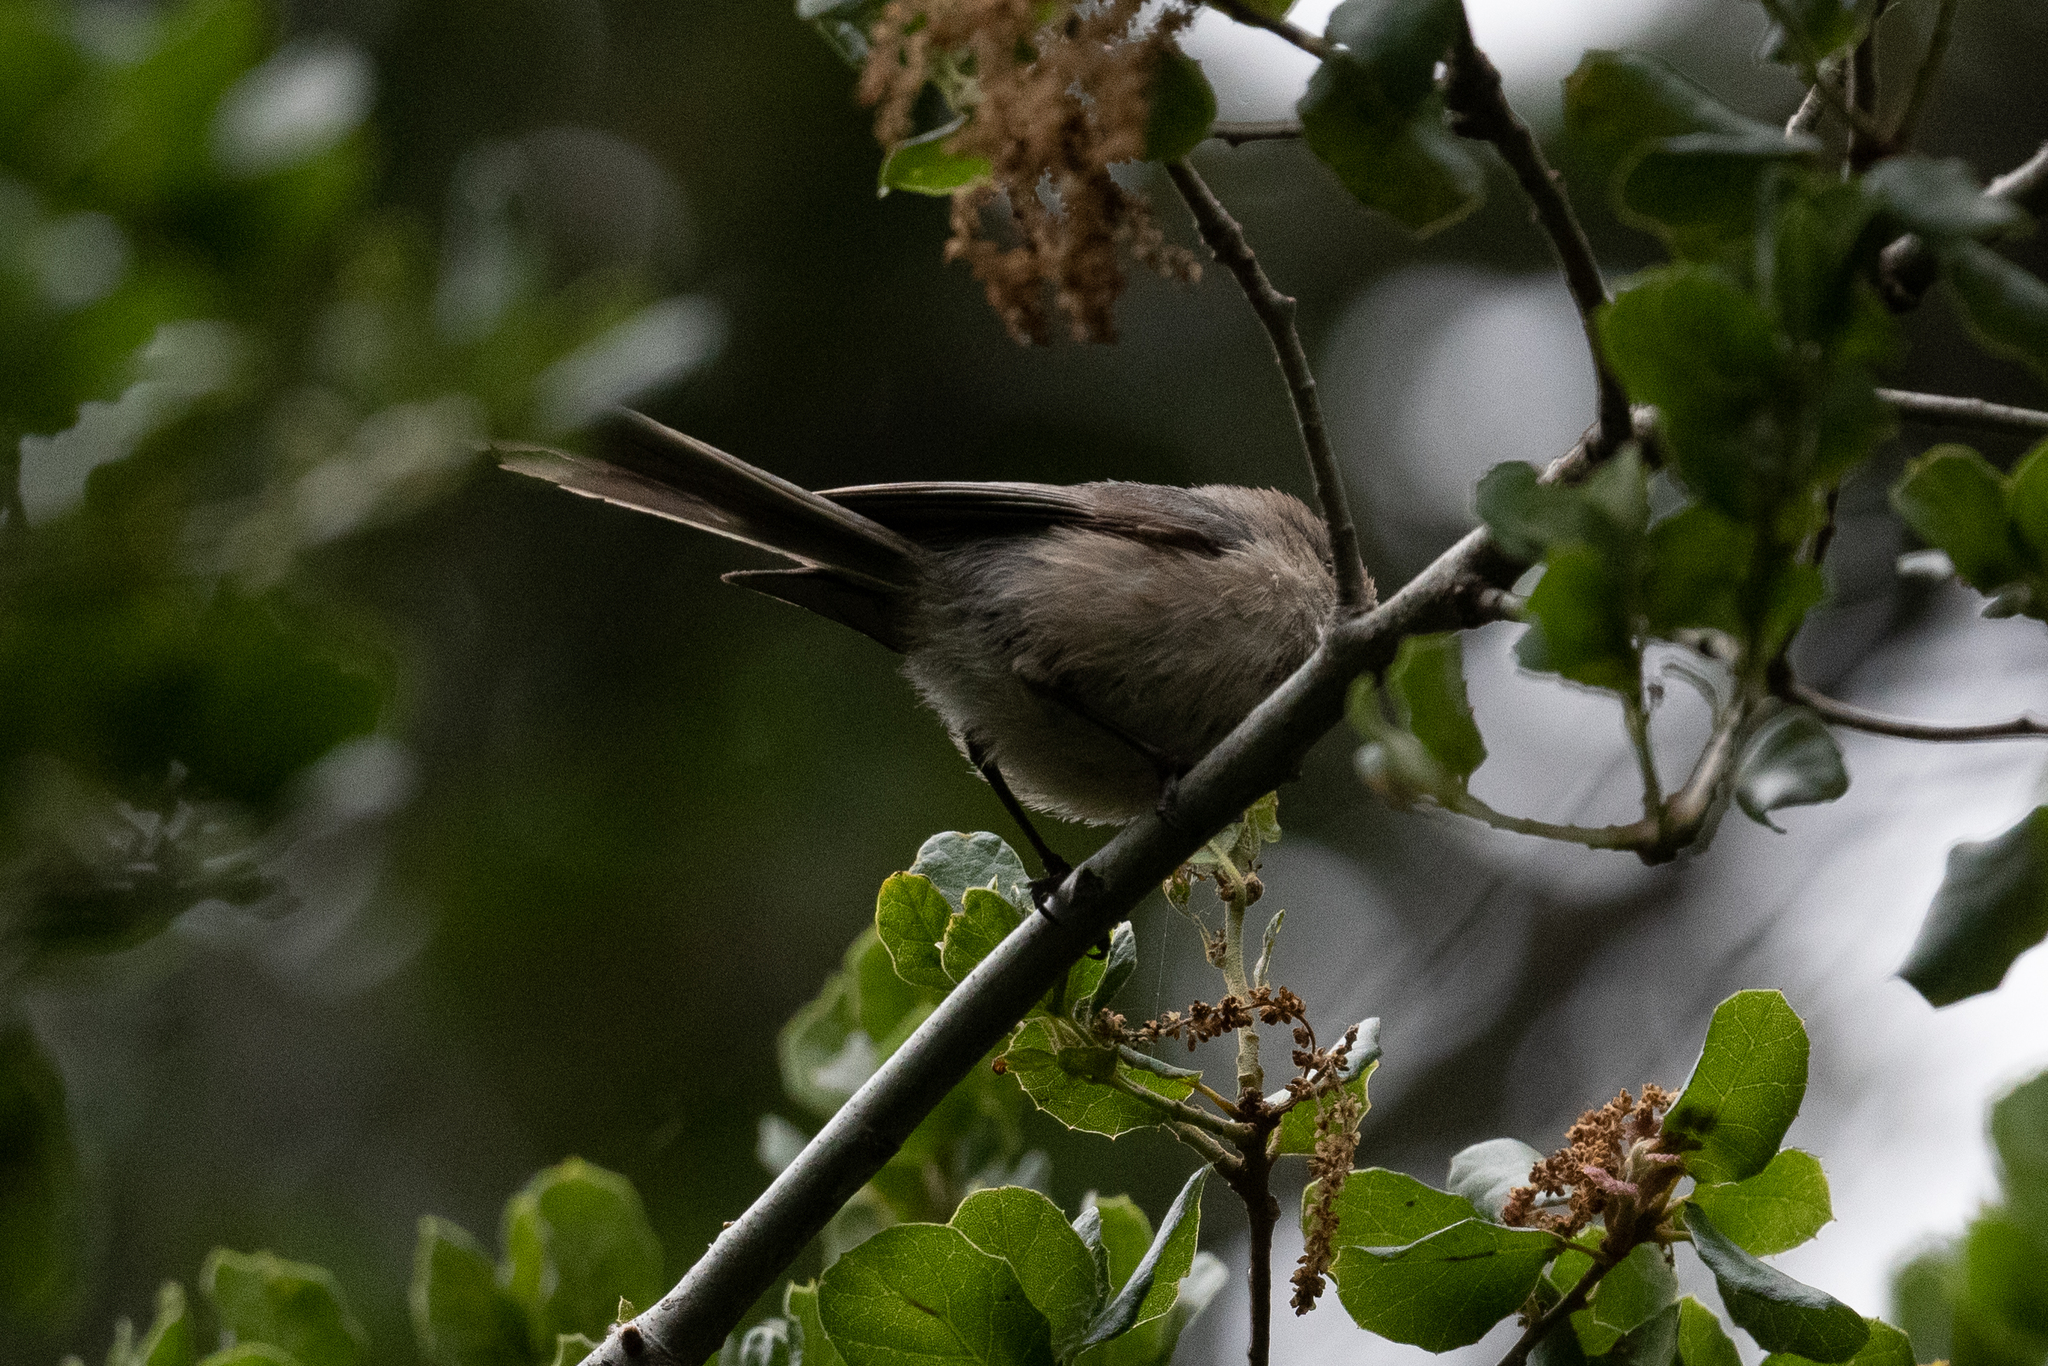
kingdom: Animalia
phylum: Chordata
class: Aves
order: Passeriformes
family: Aegithalidae
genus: Psaltriparus
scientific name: Psaltriparus minimus
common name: American bushtit
